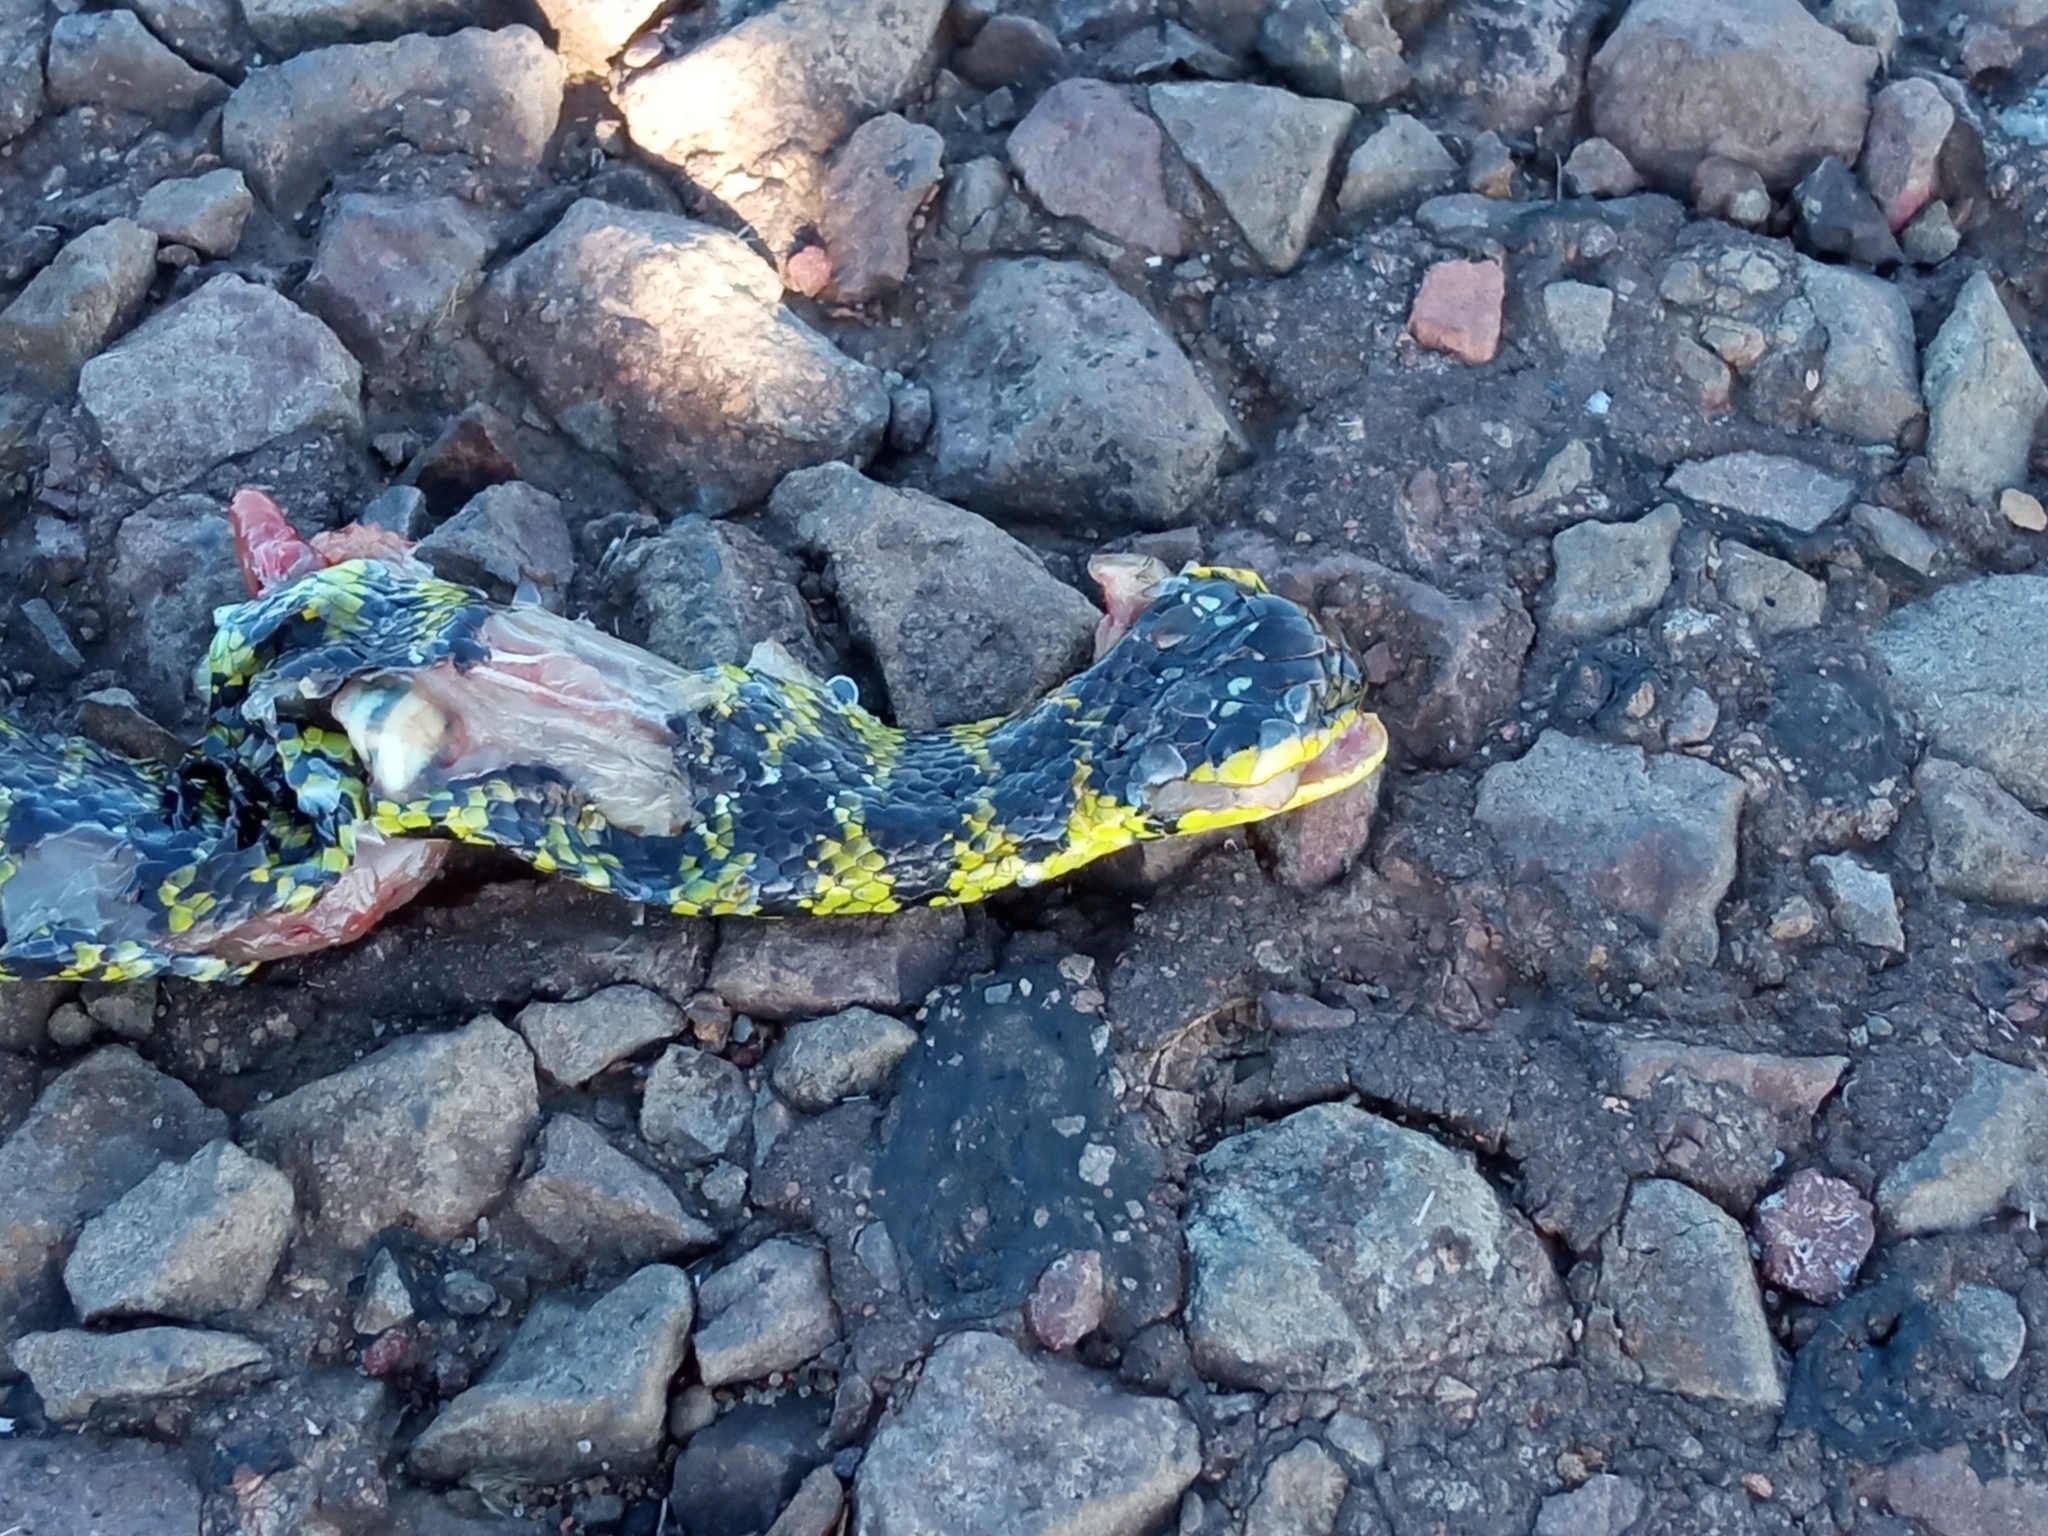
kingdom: Animalia
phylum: Chordata
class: Squamata
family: Colubridae
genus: Erythrolamprus
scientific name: Erythrolamprus poecilogyrus
